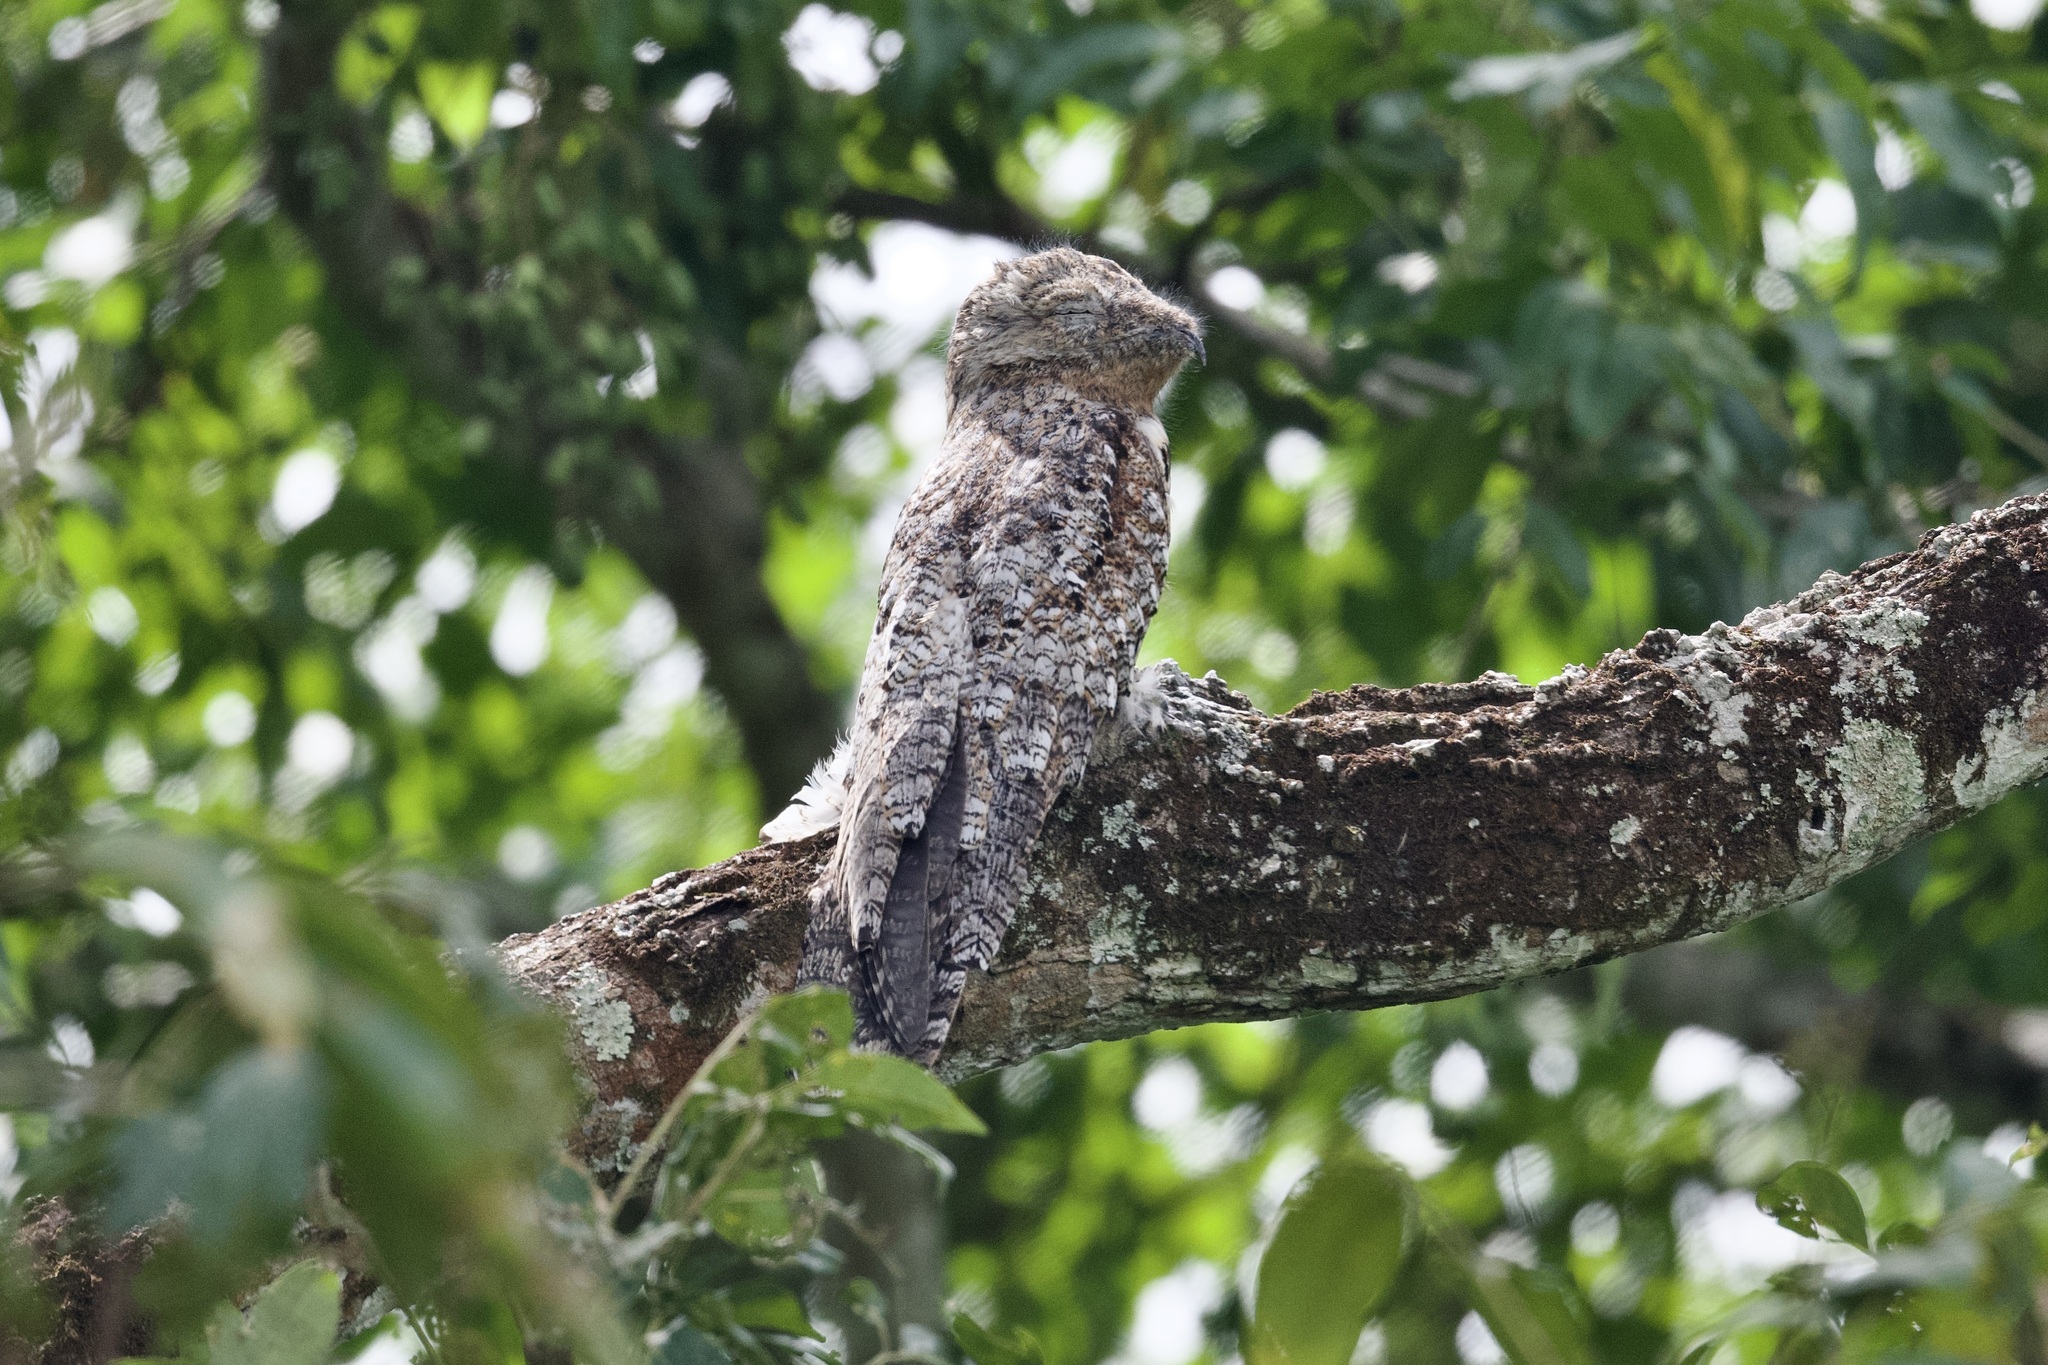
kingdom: Animalia
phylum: Chordata
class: Aves
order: Nyctibiiformes
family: Nyctibiidae
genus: Nyctibius
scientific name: Nyctibius grandis
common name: Great potoo
